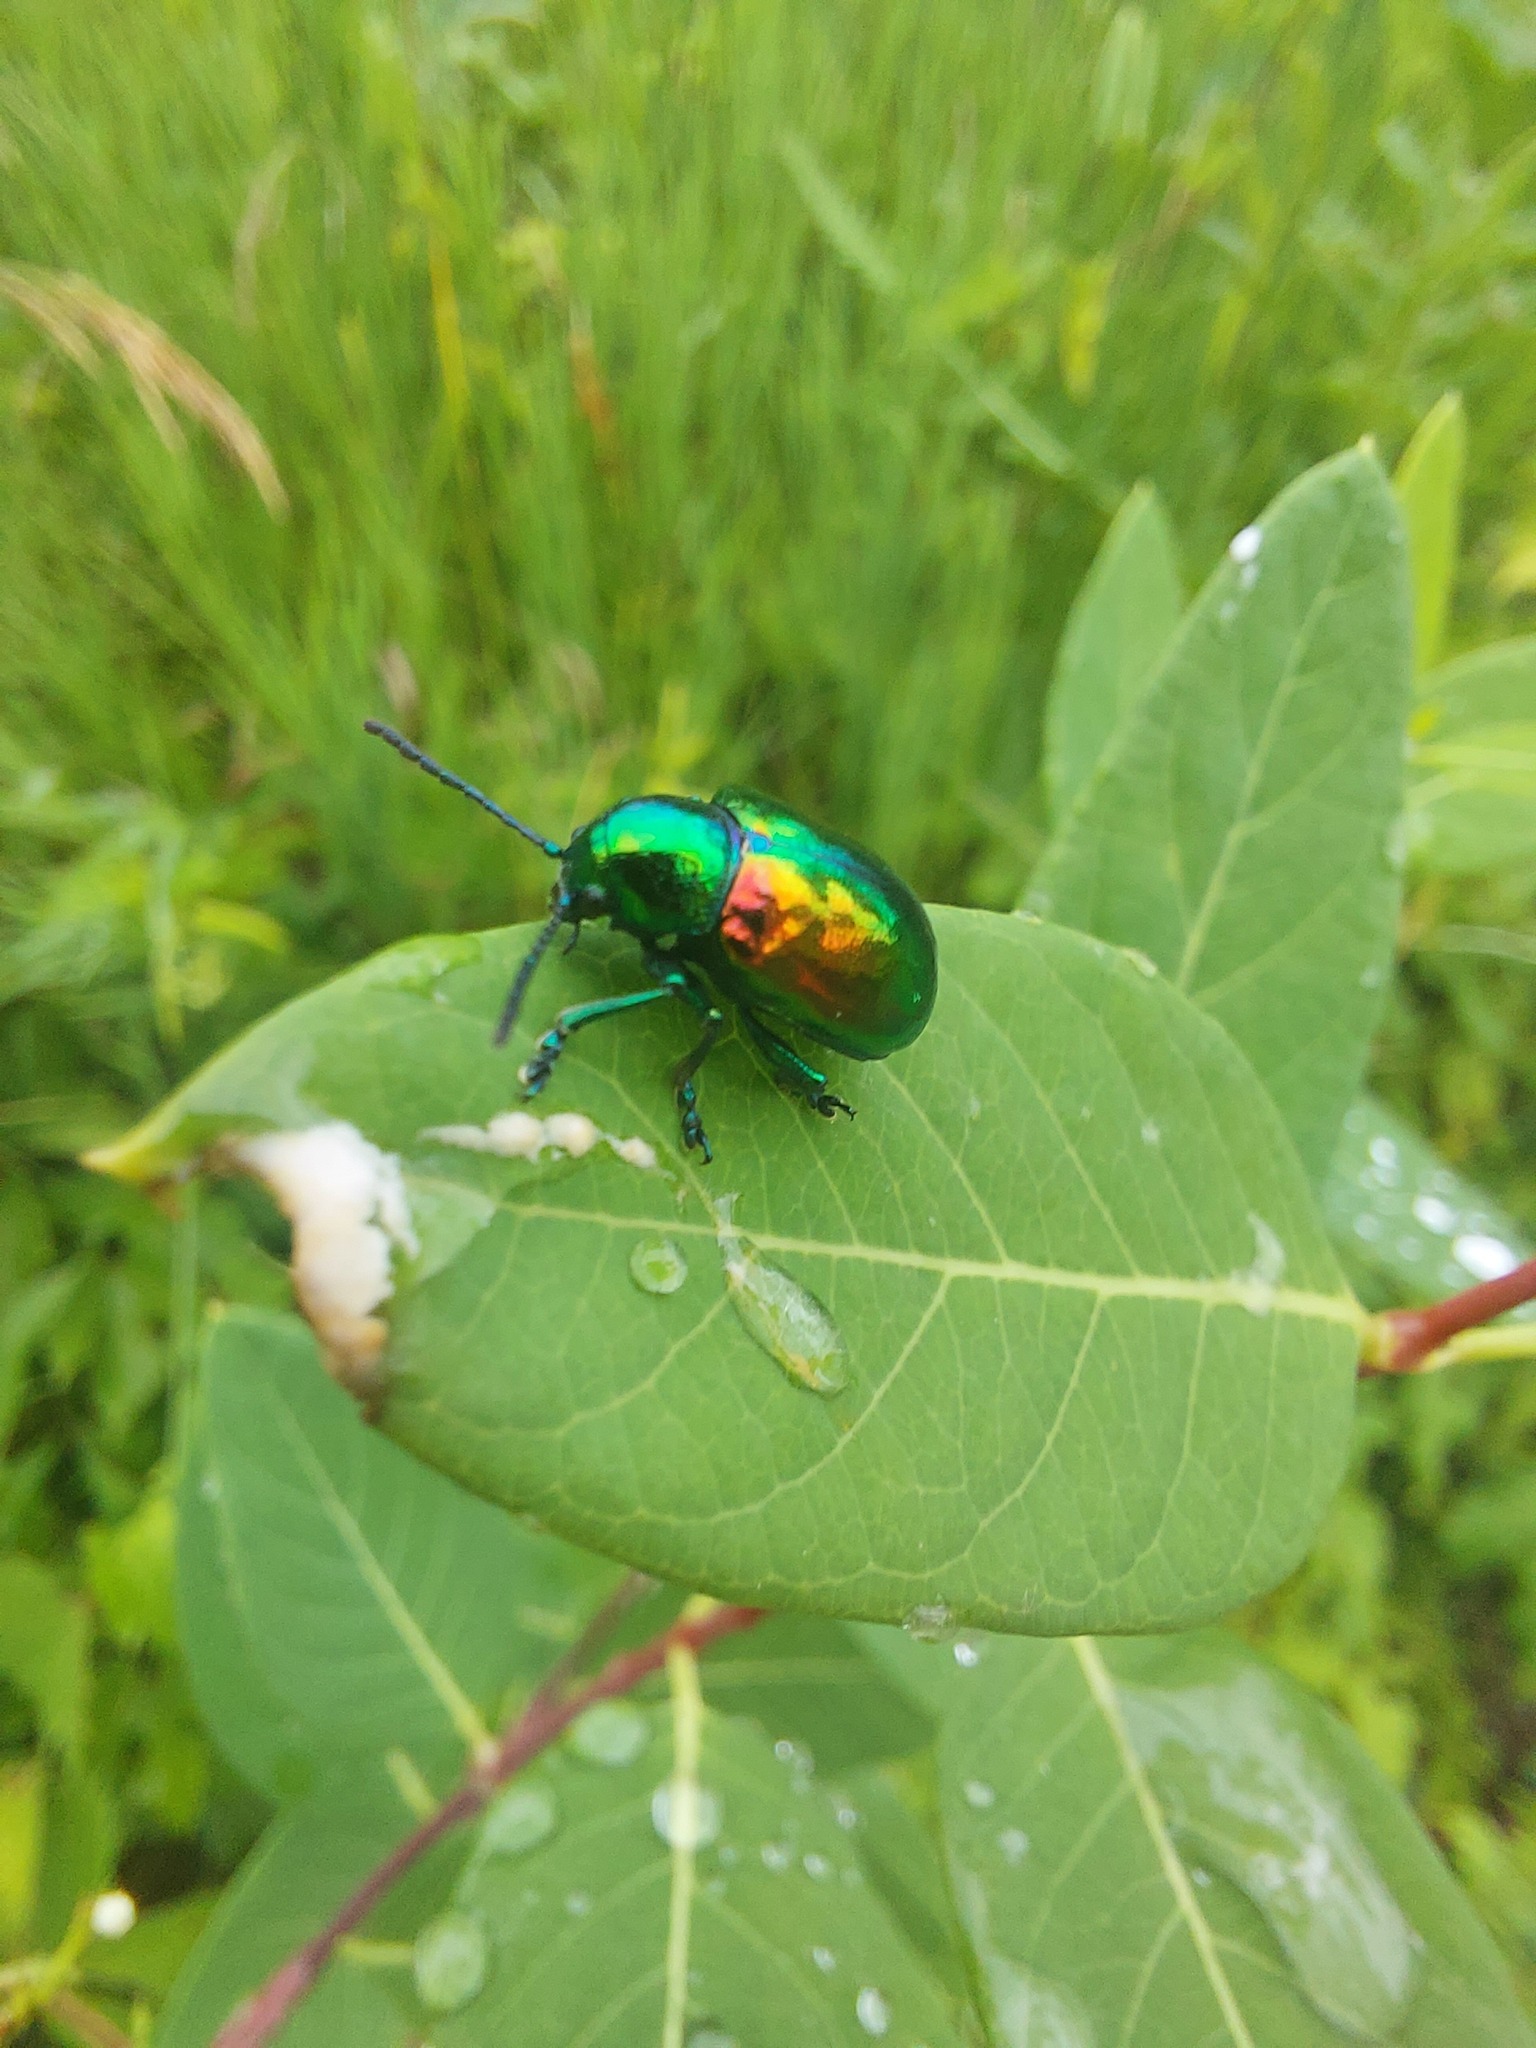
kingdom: Animalia
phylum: Arthropoda
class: Insecta
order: Coleoptera
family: Chrysomelidae
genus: Chrysochus
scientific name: Chrysochus auratus
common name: Dogbane leaf beetle
